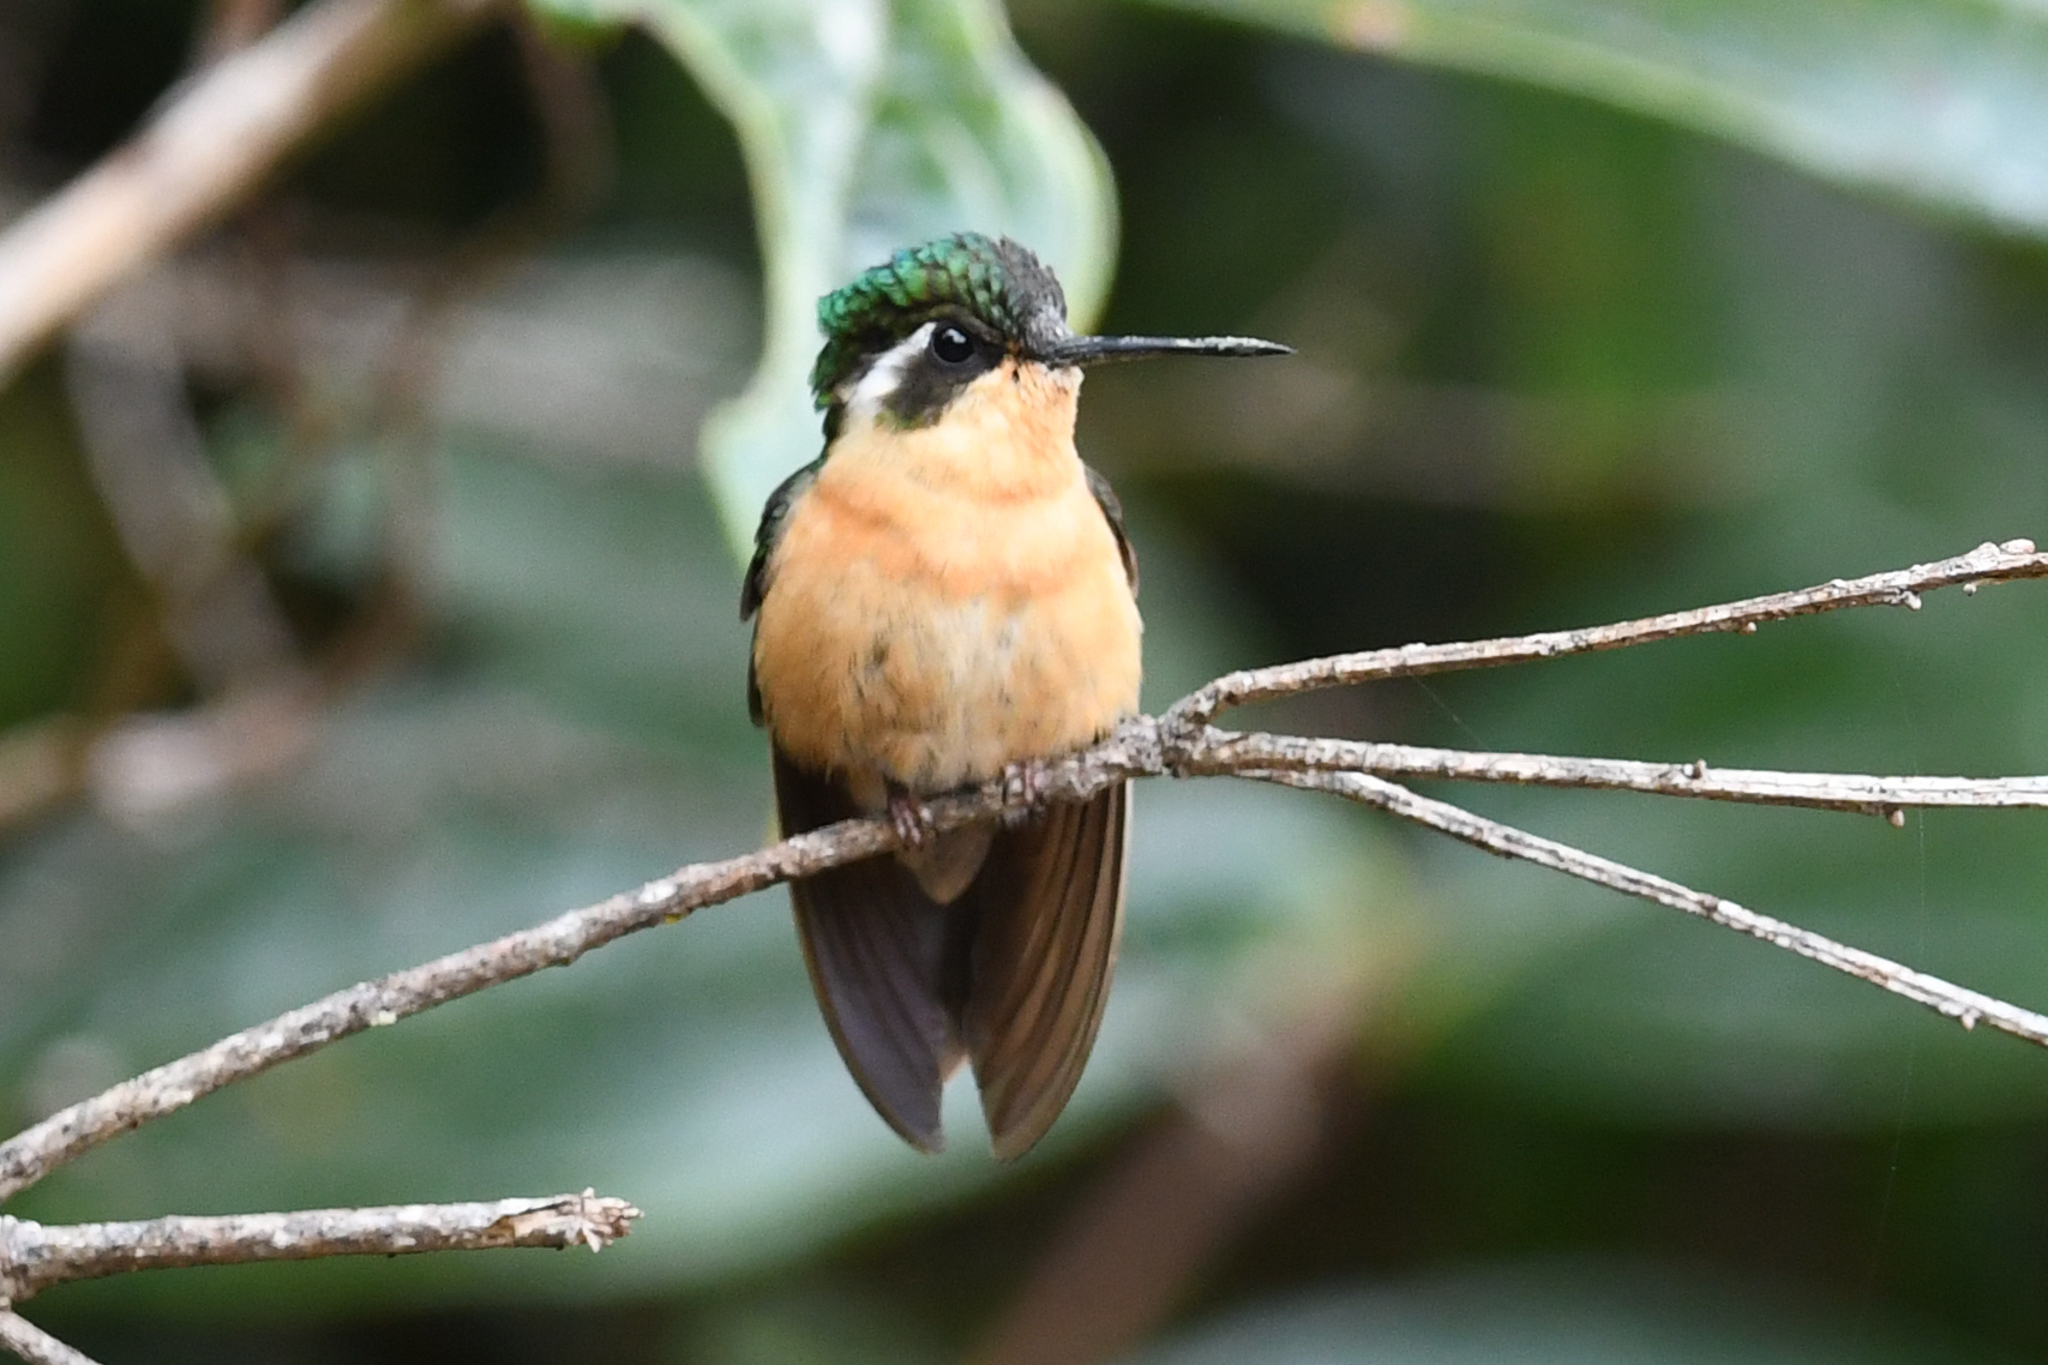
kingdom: Animalia
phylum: Chordata
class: Aves
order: Apodiformes
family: Trochilidae
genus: Lampornis
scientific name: Lampornis castaneoventris
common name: White-throated mountain-gem
